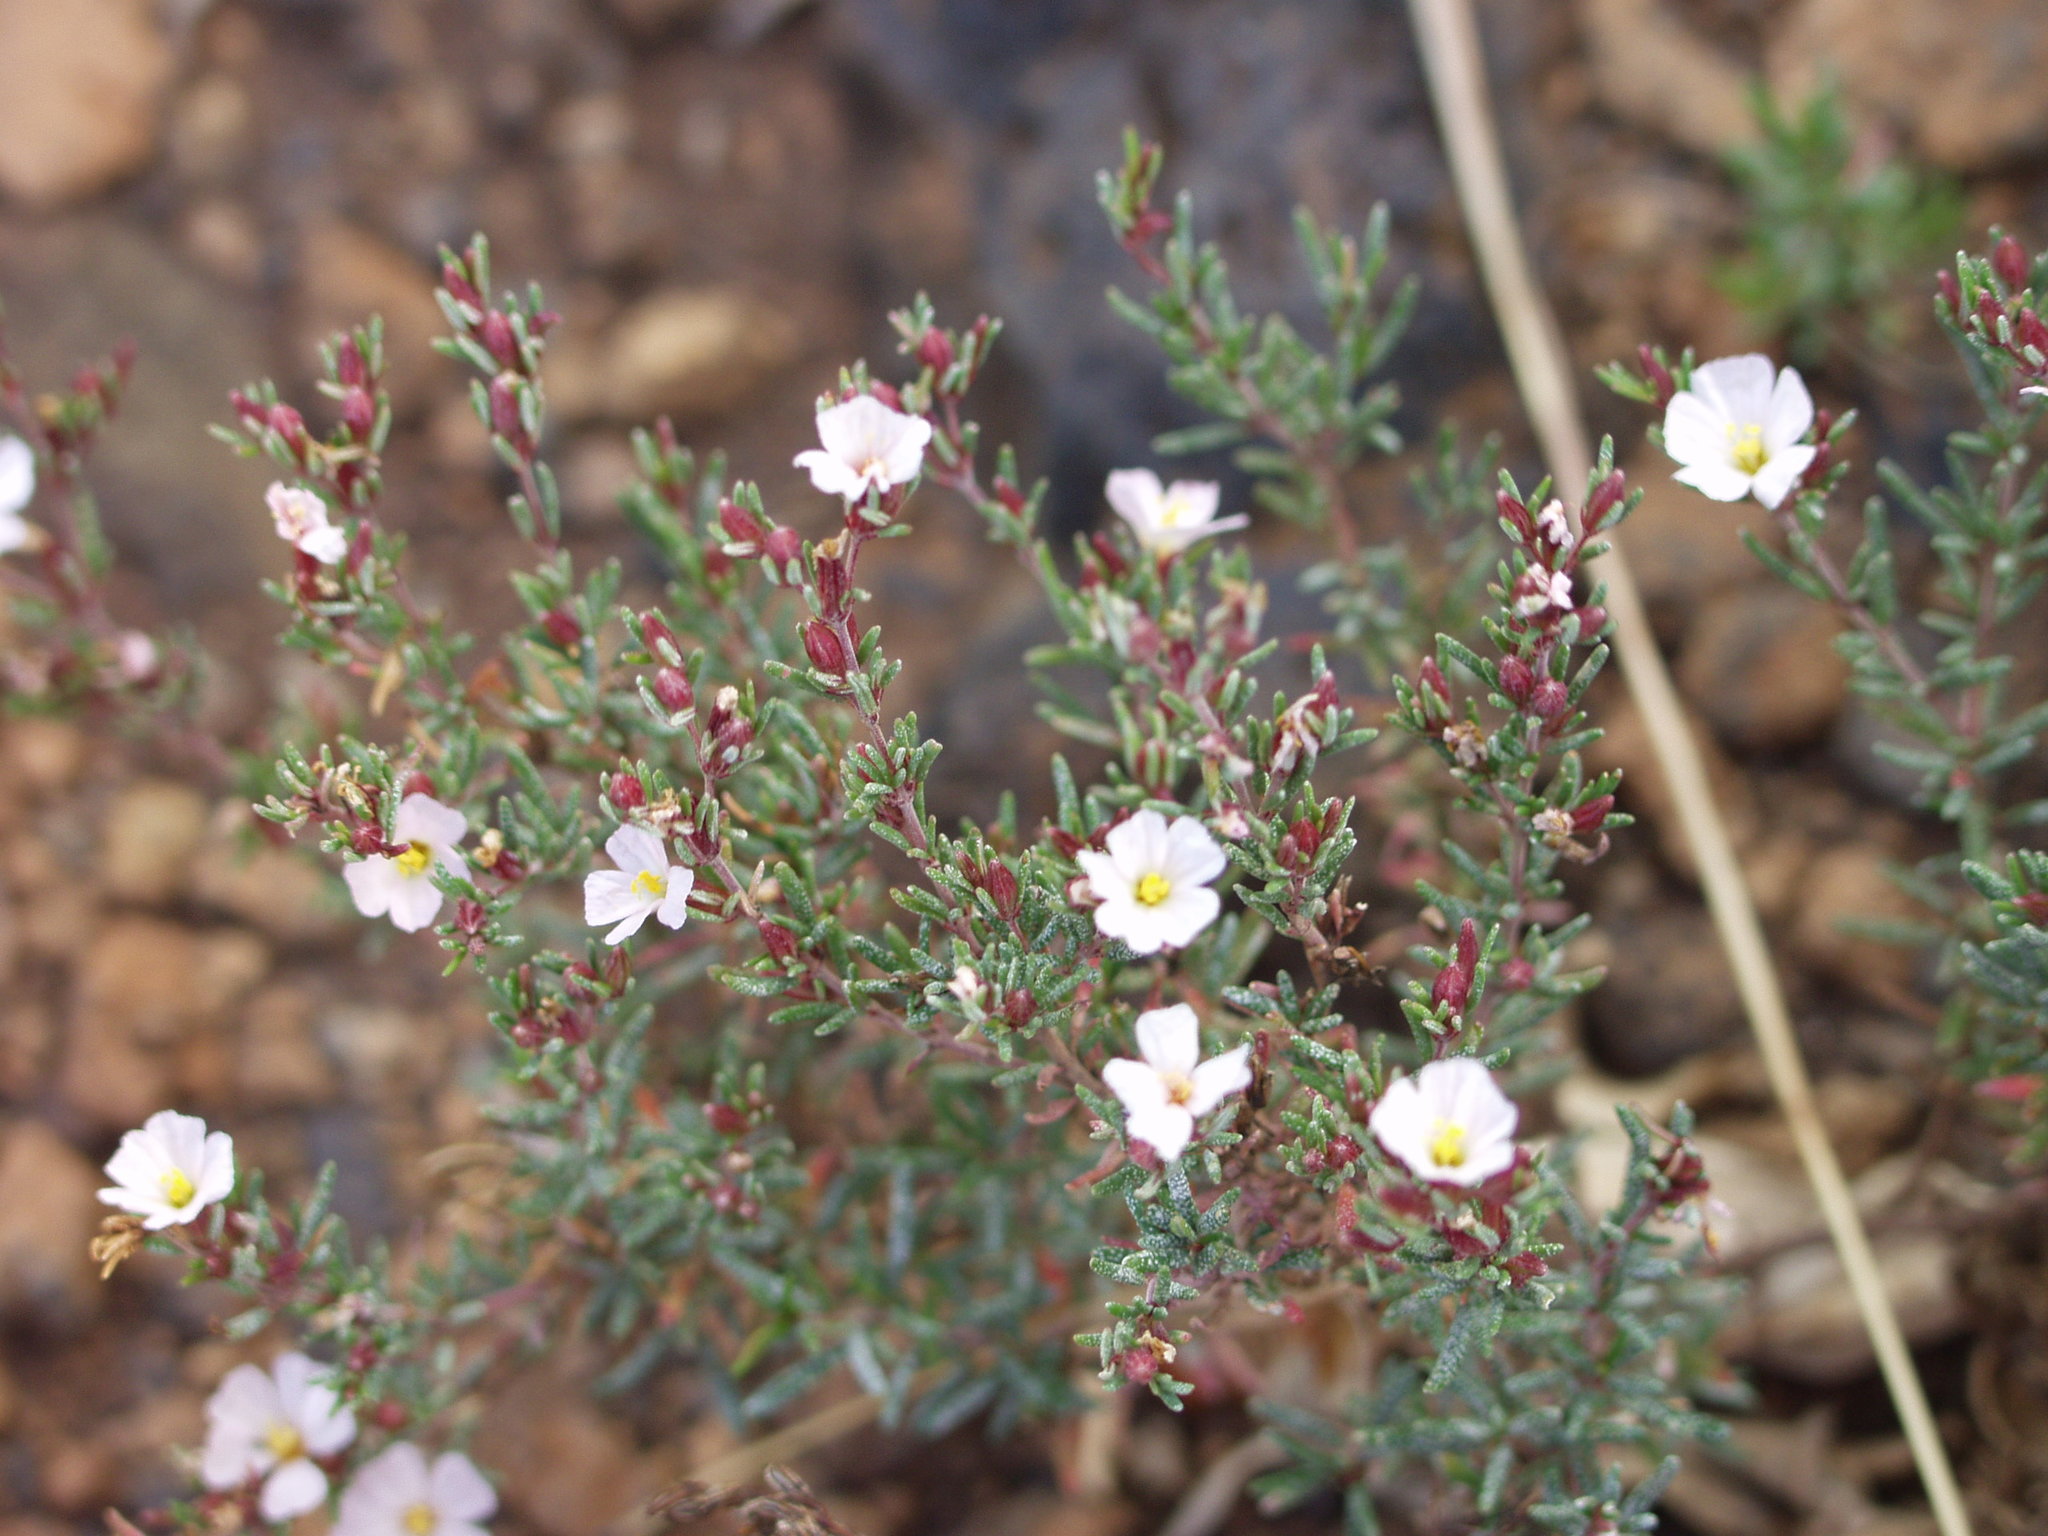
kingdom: Plantae
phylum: Tracheophyta
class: Magnoliopsida
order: Caryophyllales
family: Frankeniaceae
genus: Frankenia
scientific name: Frankenia capitata
